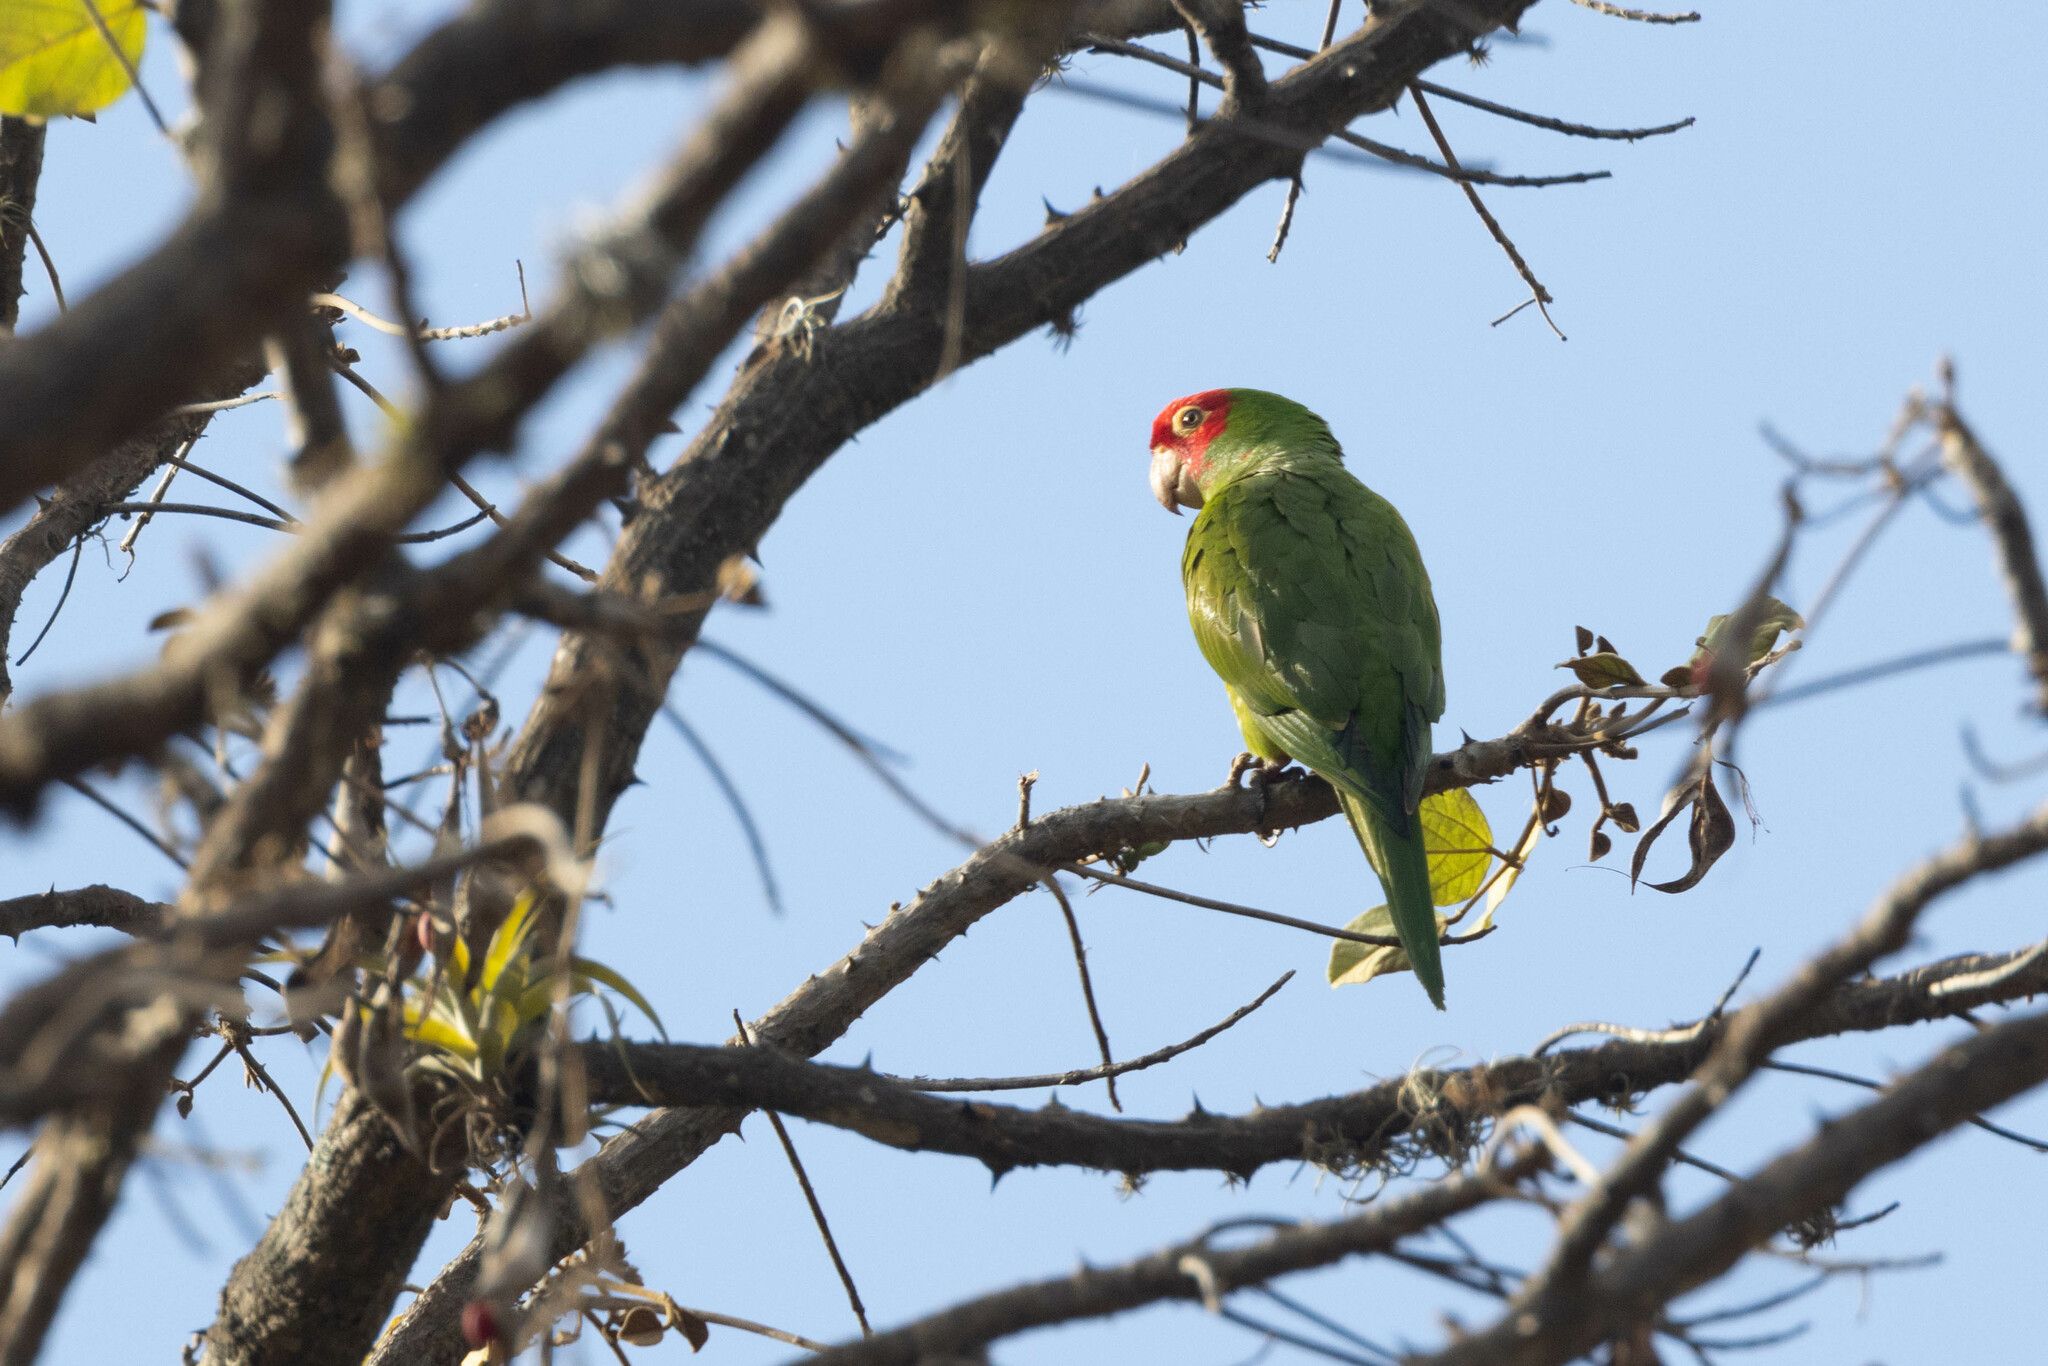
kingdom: Animalia
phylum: Chordata
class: Aves
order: Psittaciformes
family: Psittacidae
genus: Aratinga
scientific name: Aratinga erythrogenys
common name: Red-masked parakeet
